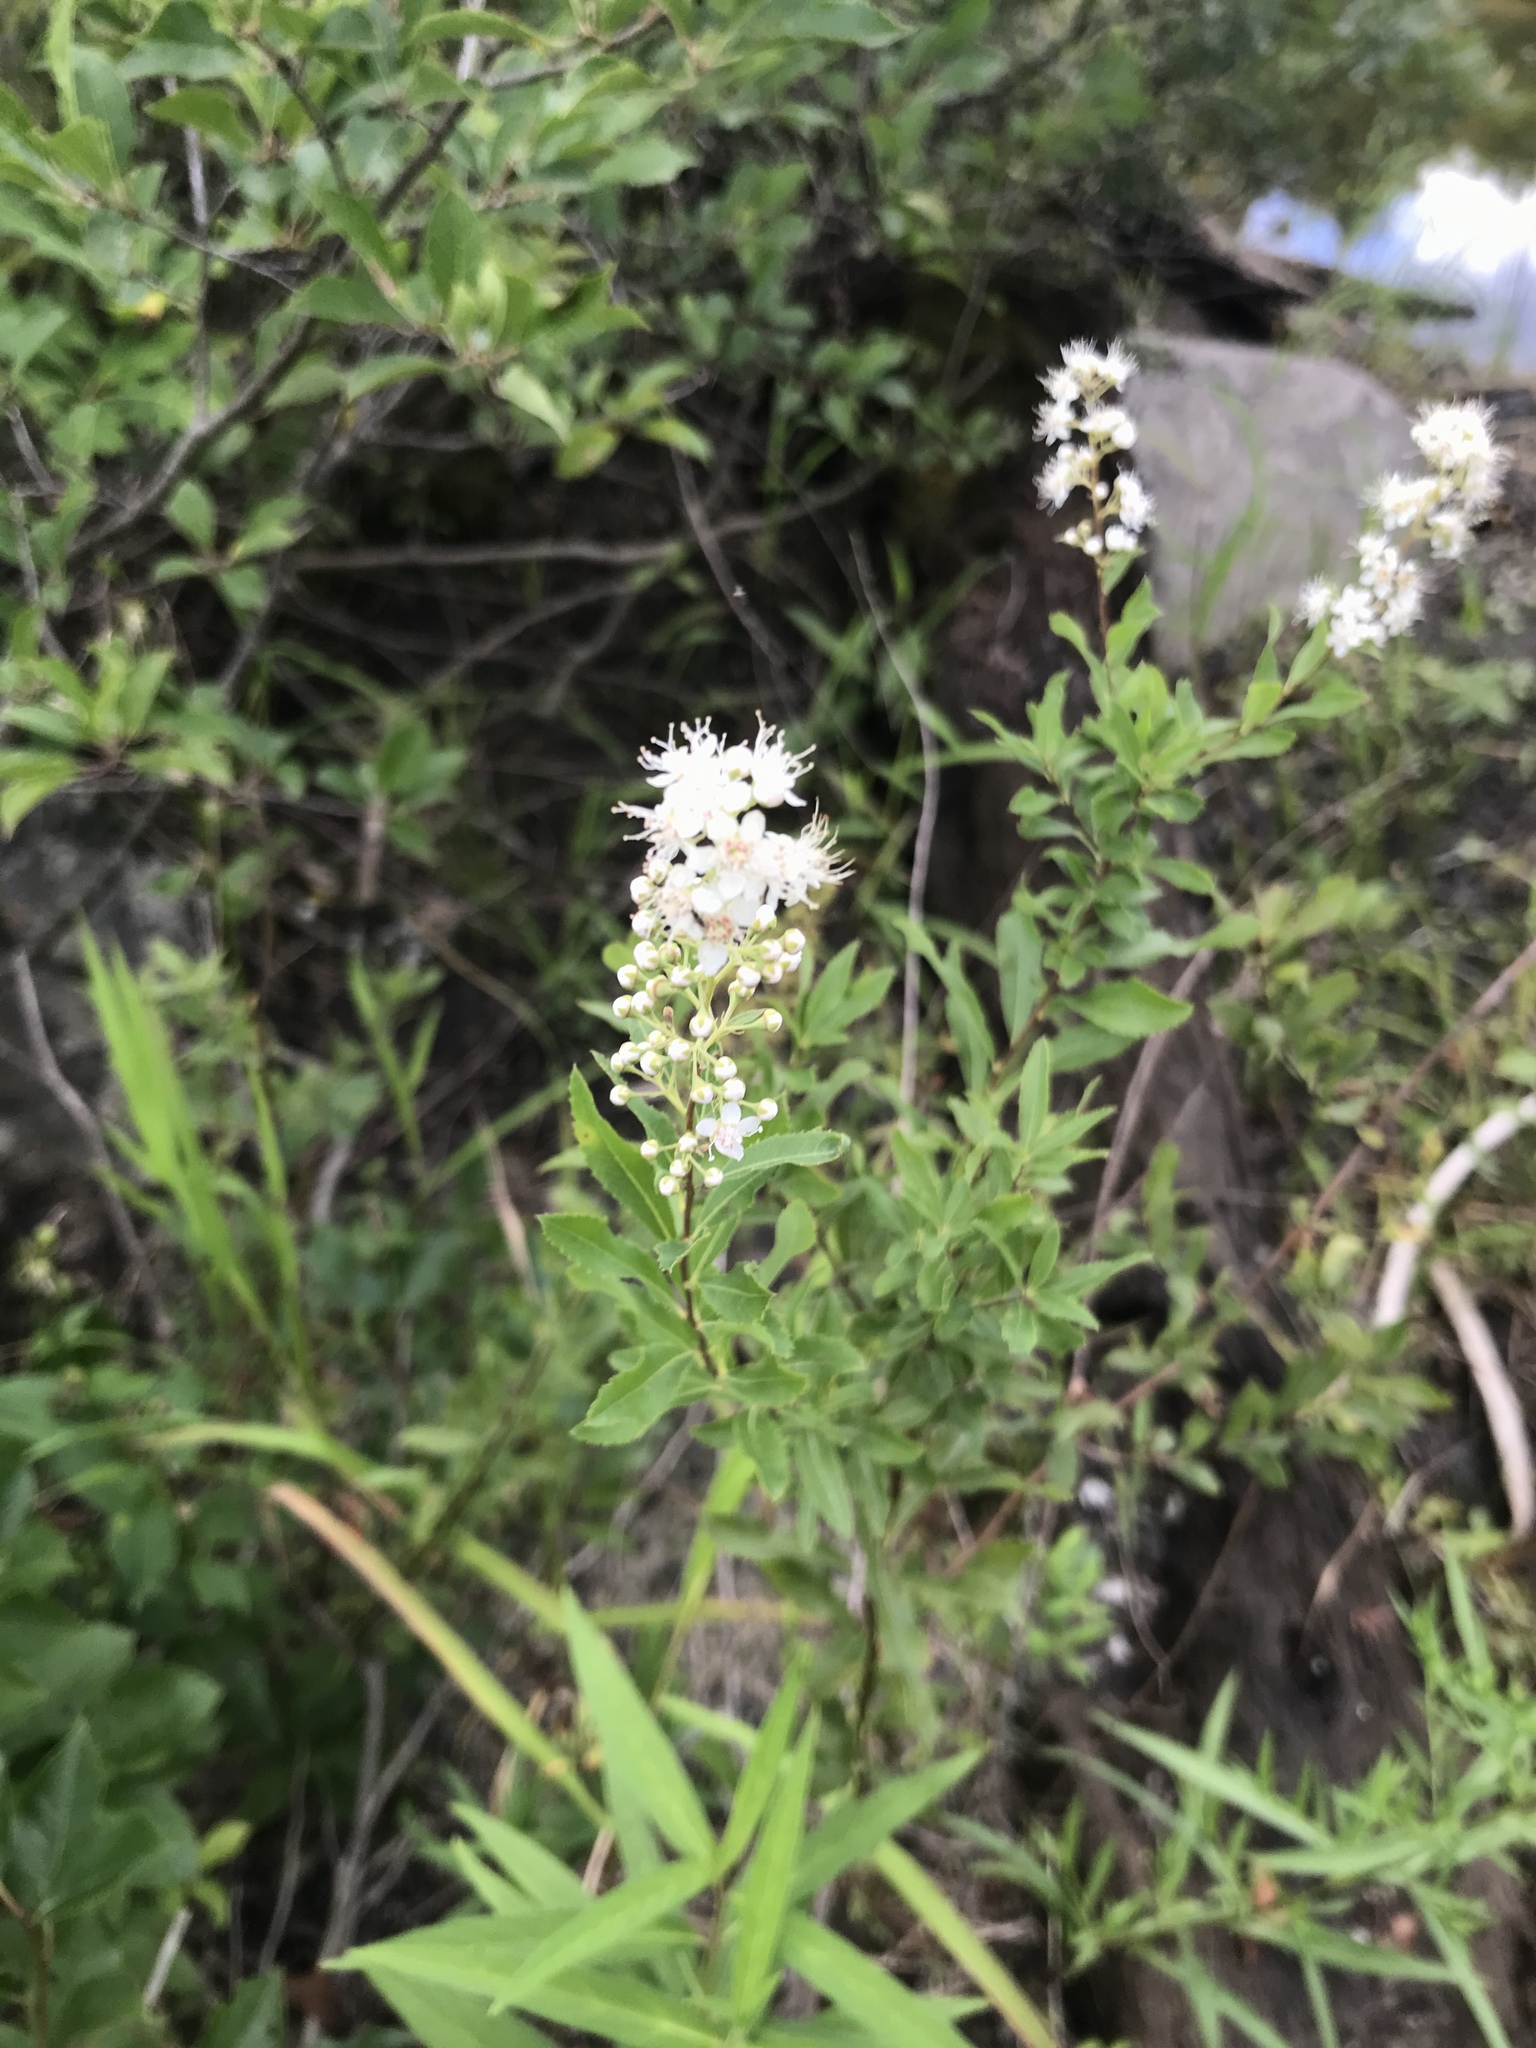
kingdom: Plantae
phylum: Tracheophyta
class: Magnoliopsida
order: Rosales
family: Rosaceae
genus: Spiraea
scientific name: Spiraea alba
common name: Pale bridewort
